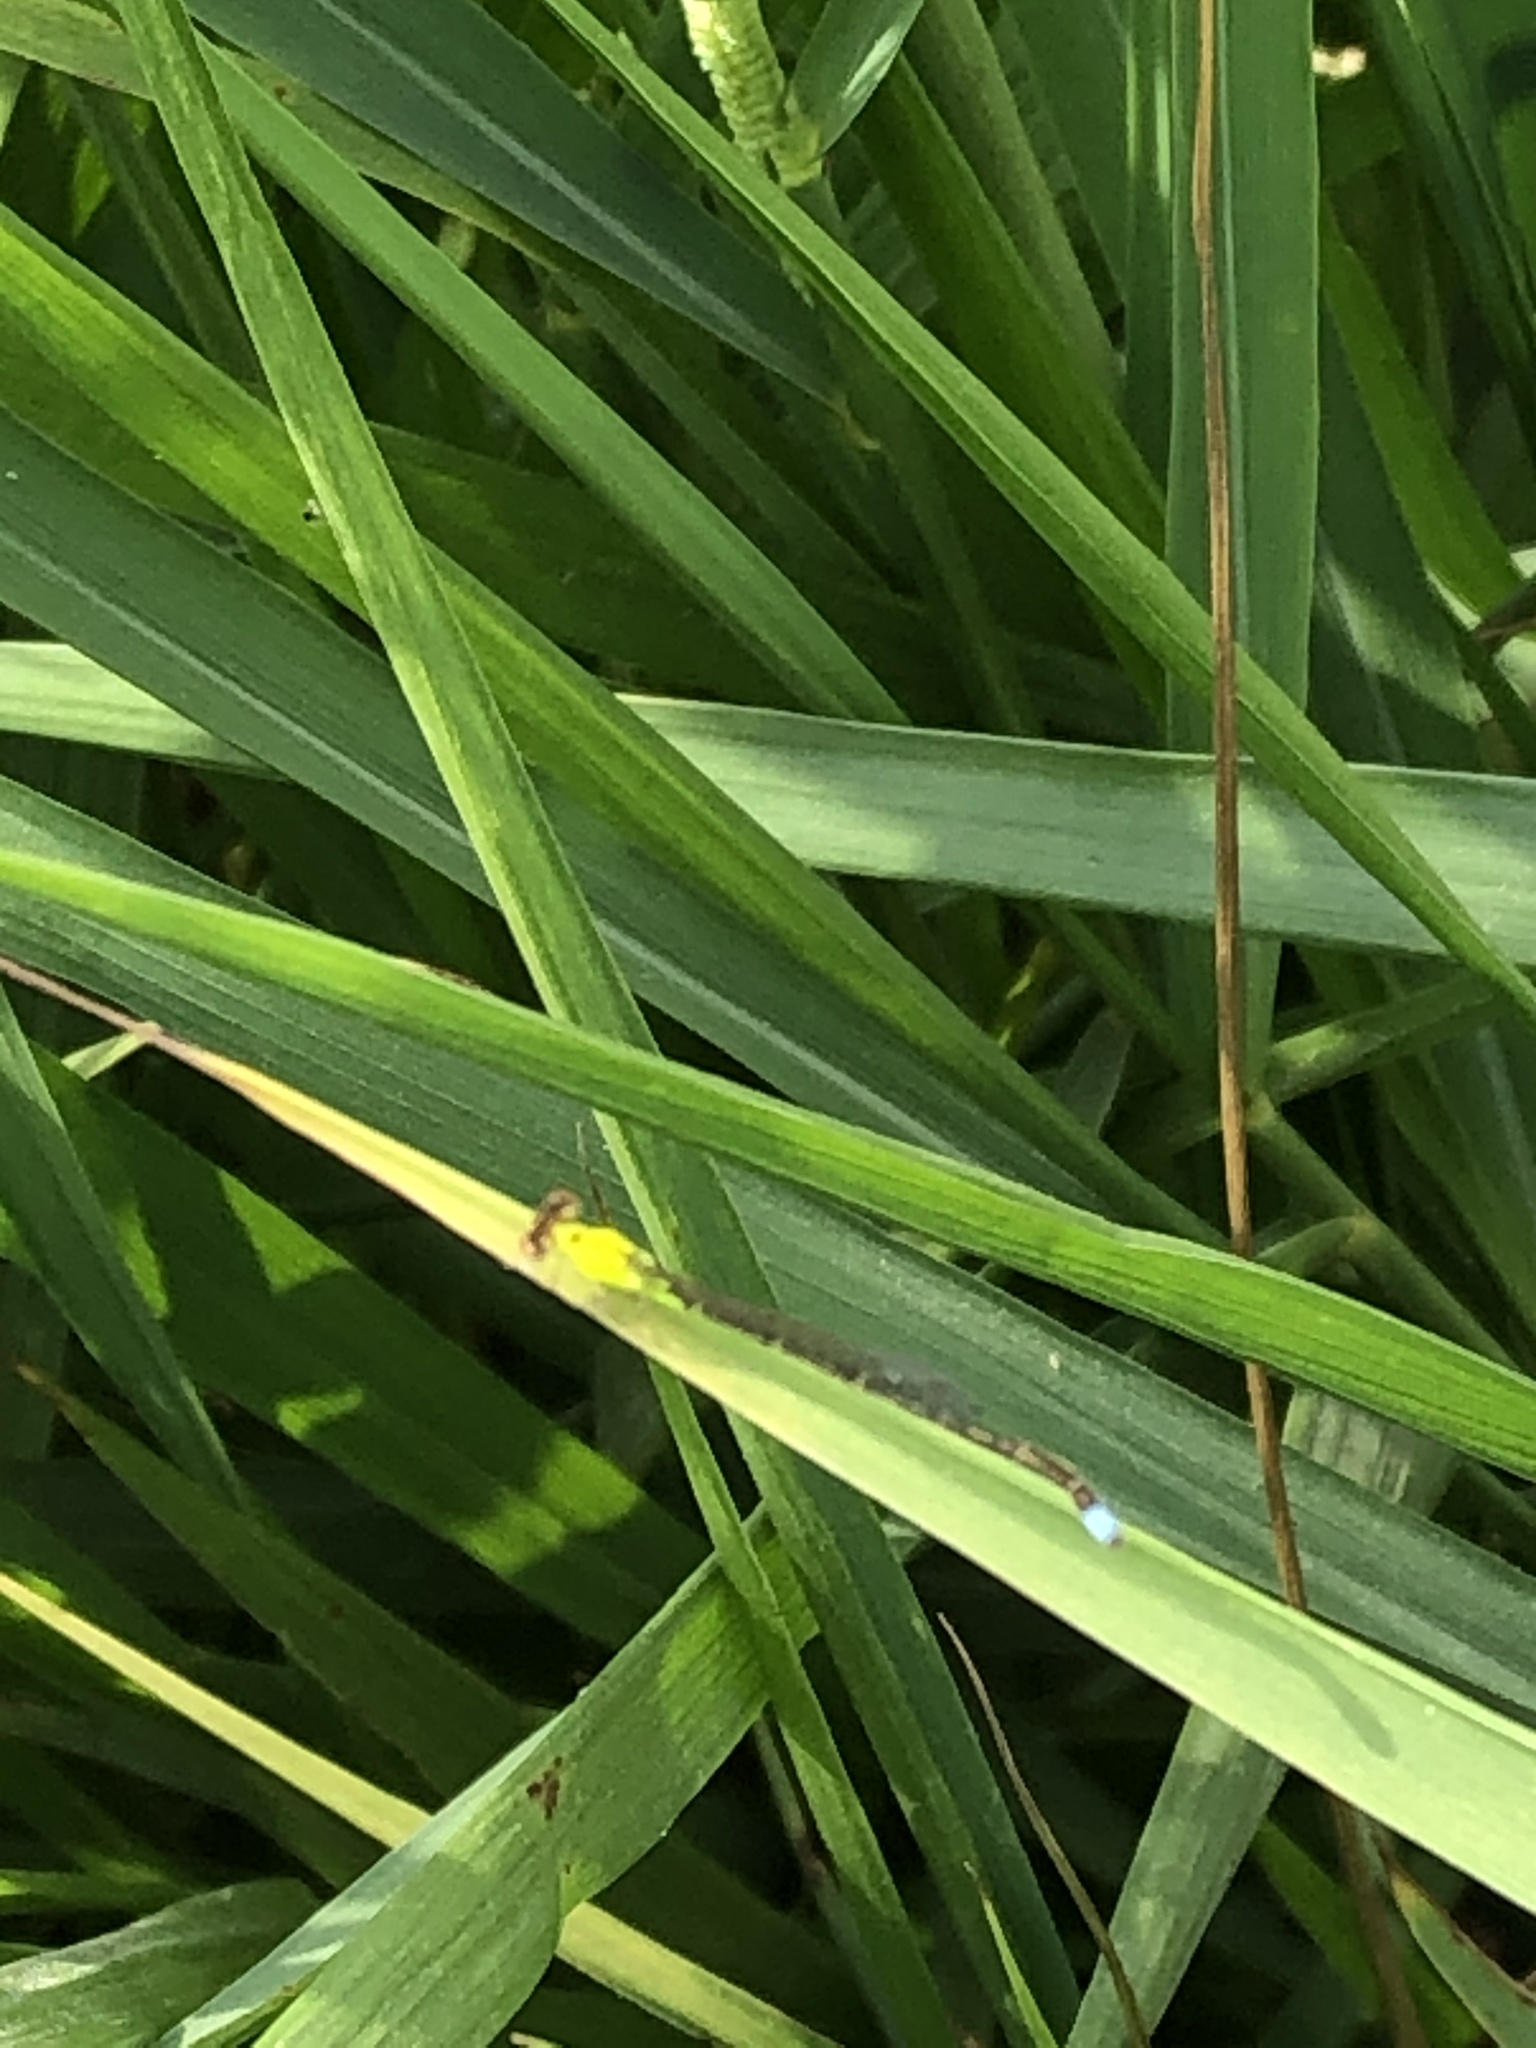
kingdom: Animalia
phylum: Arthropoda
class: Insecta
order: Odonata
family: Coenagrionidae
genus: Ischnura
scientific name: Ischnura capreolus
